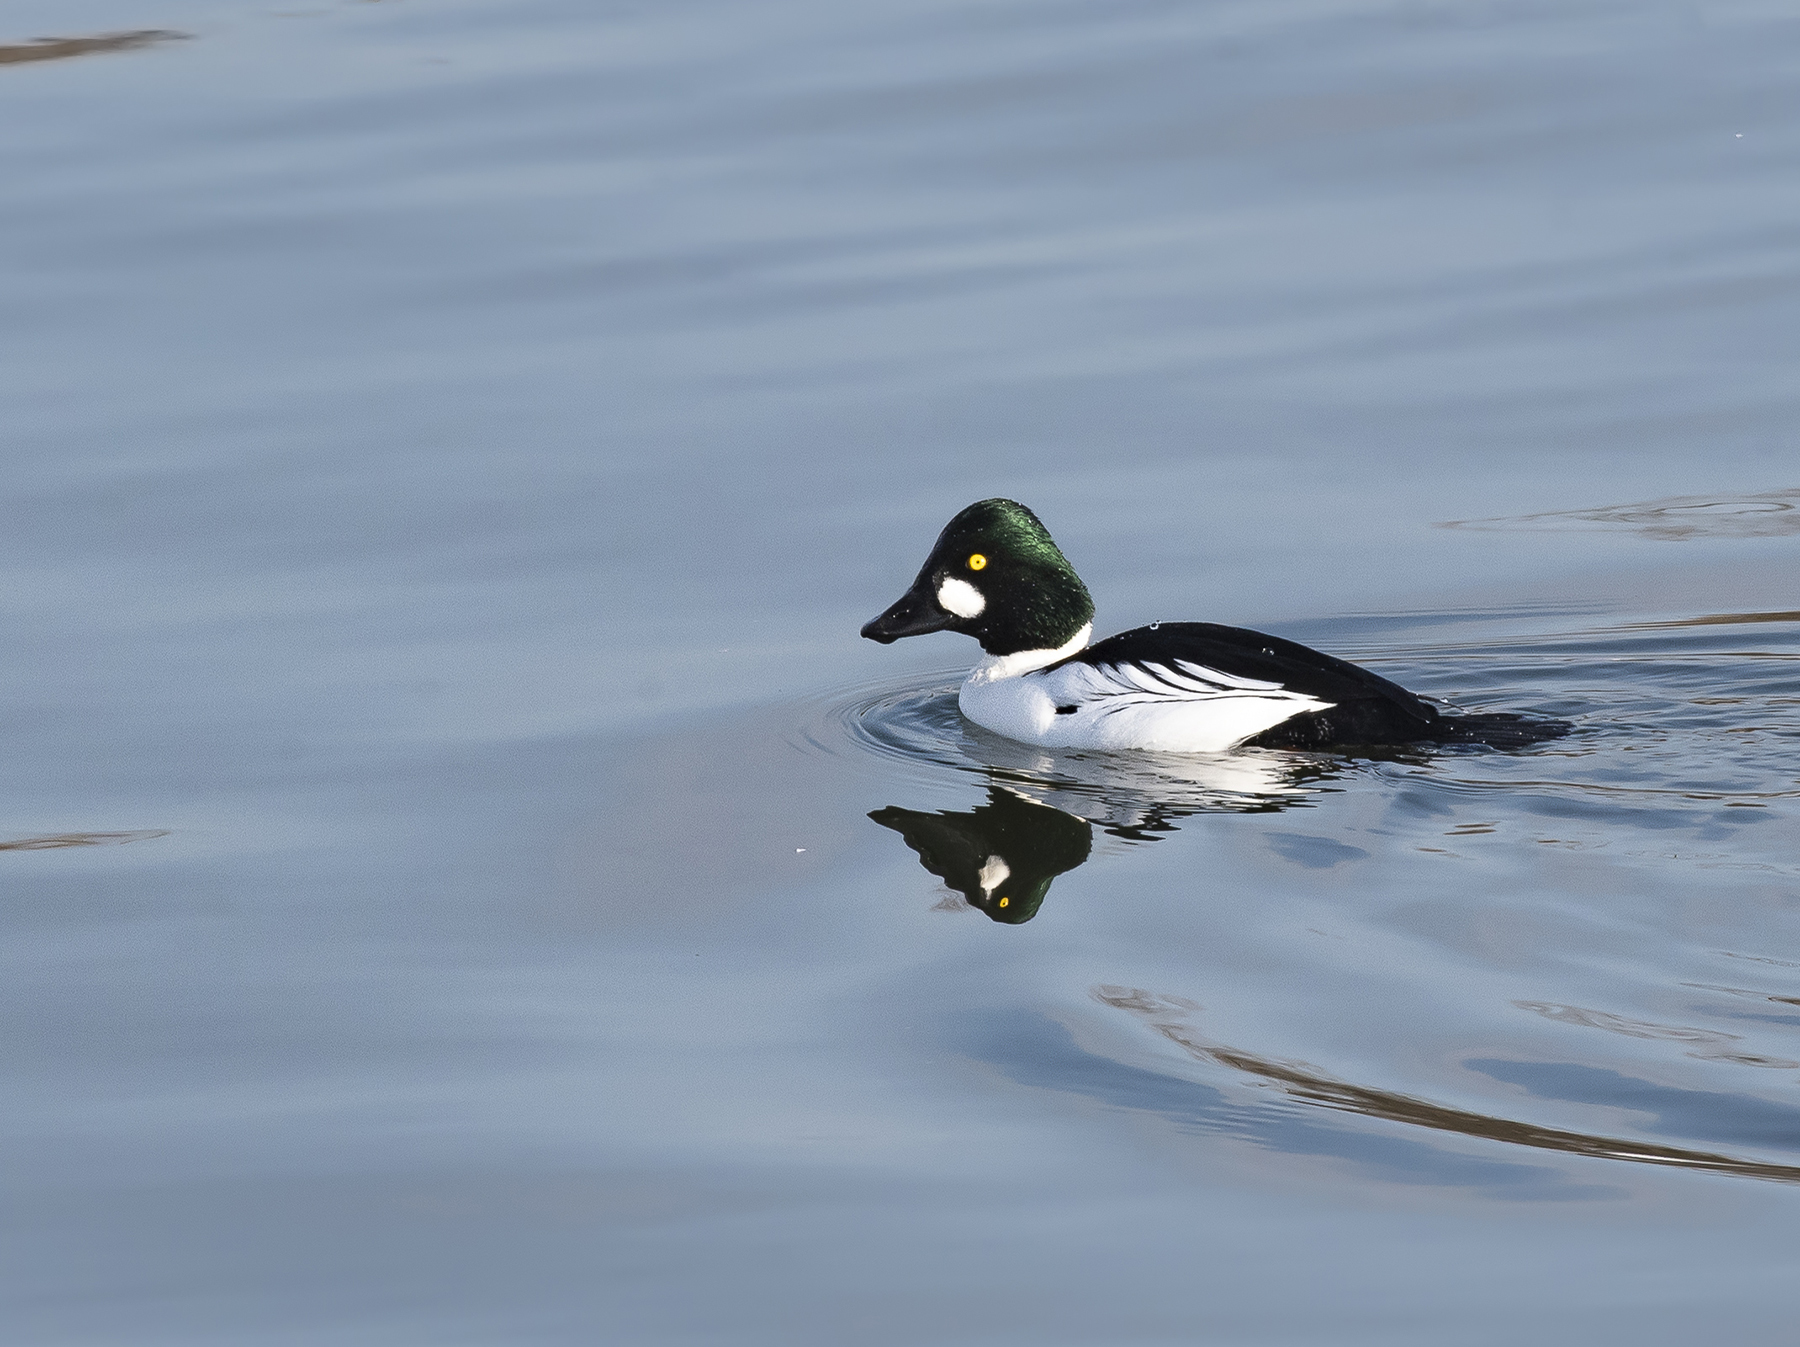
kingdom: Animalia
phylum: Chordata
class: Aves
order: Anseriformes
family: Anatidae
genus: Bucephala
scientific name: Bucephala clangula
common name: Common goldeneye
